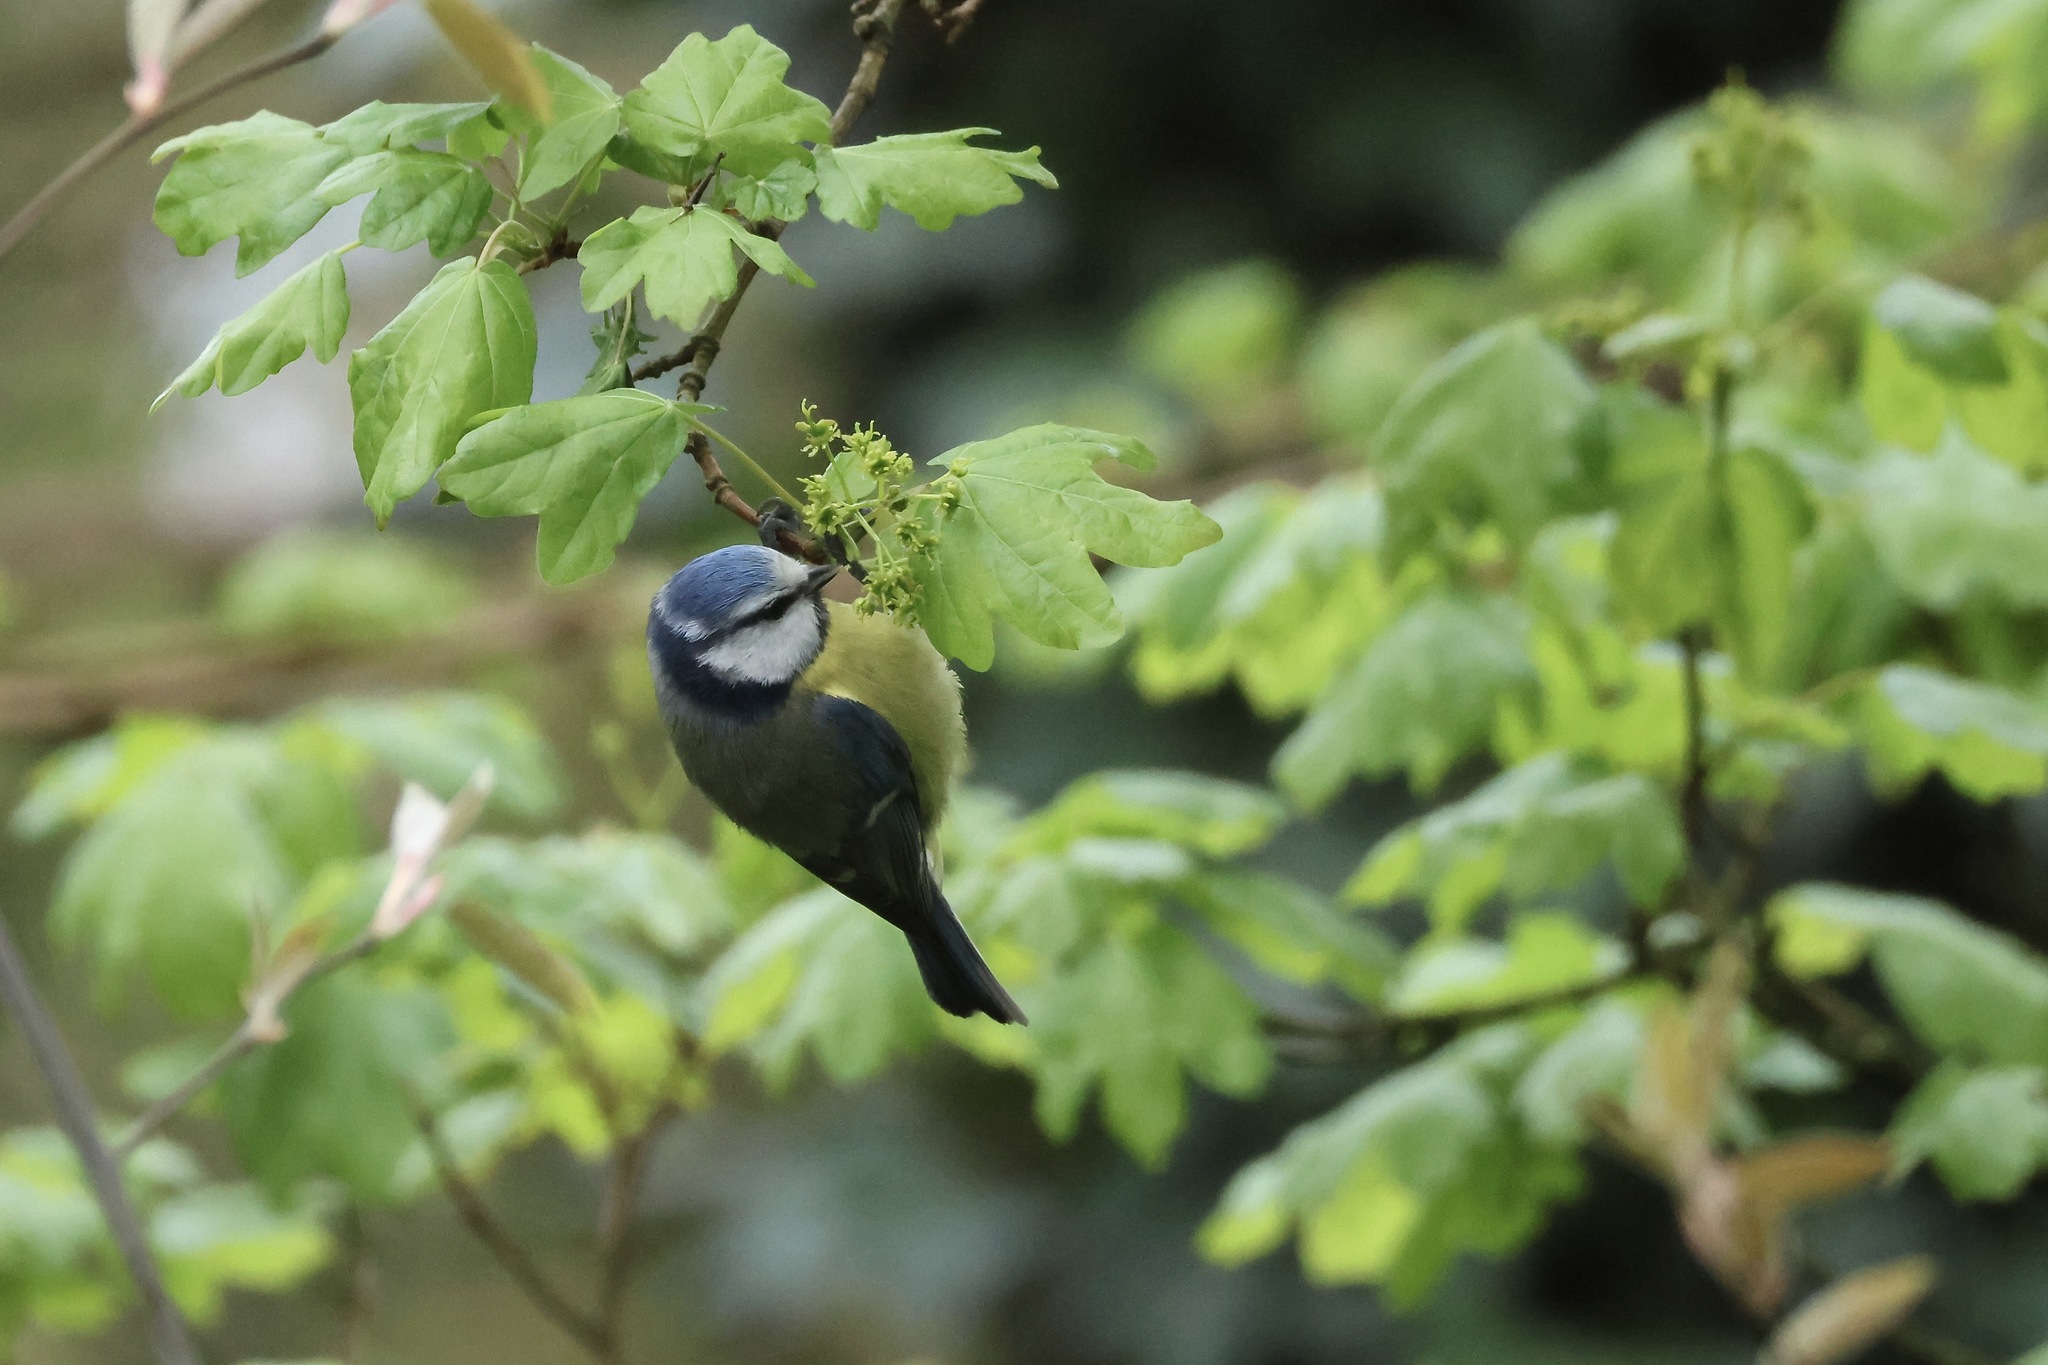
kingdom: Animalia
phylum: Chordata
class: Aves
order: Passeriformes
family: Paridae
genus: Cyanistes
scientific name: Cyanistes caeruleus
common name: Eurasian blue tit
